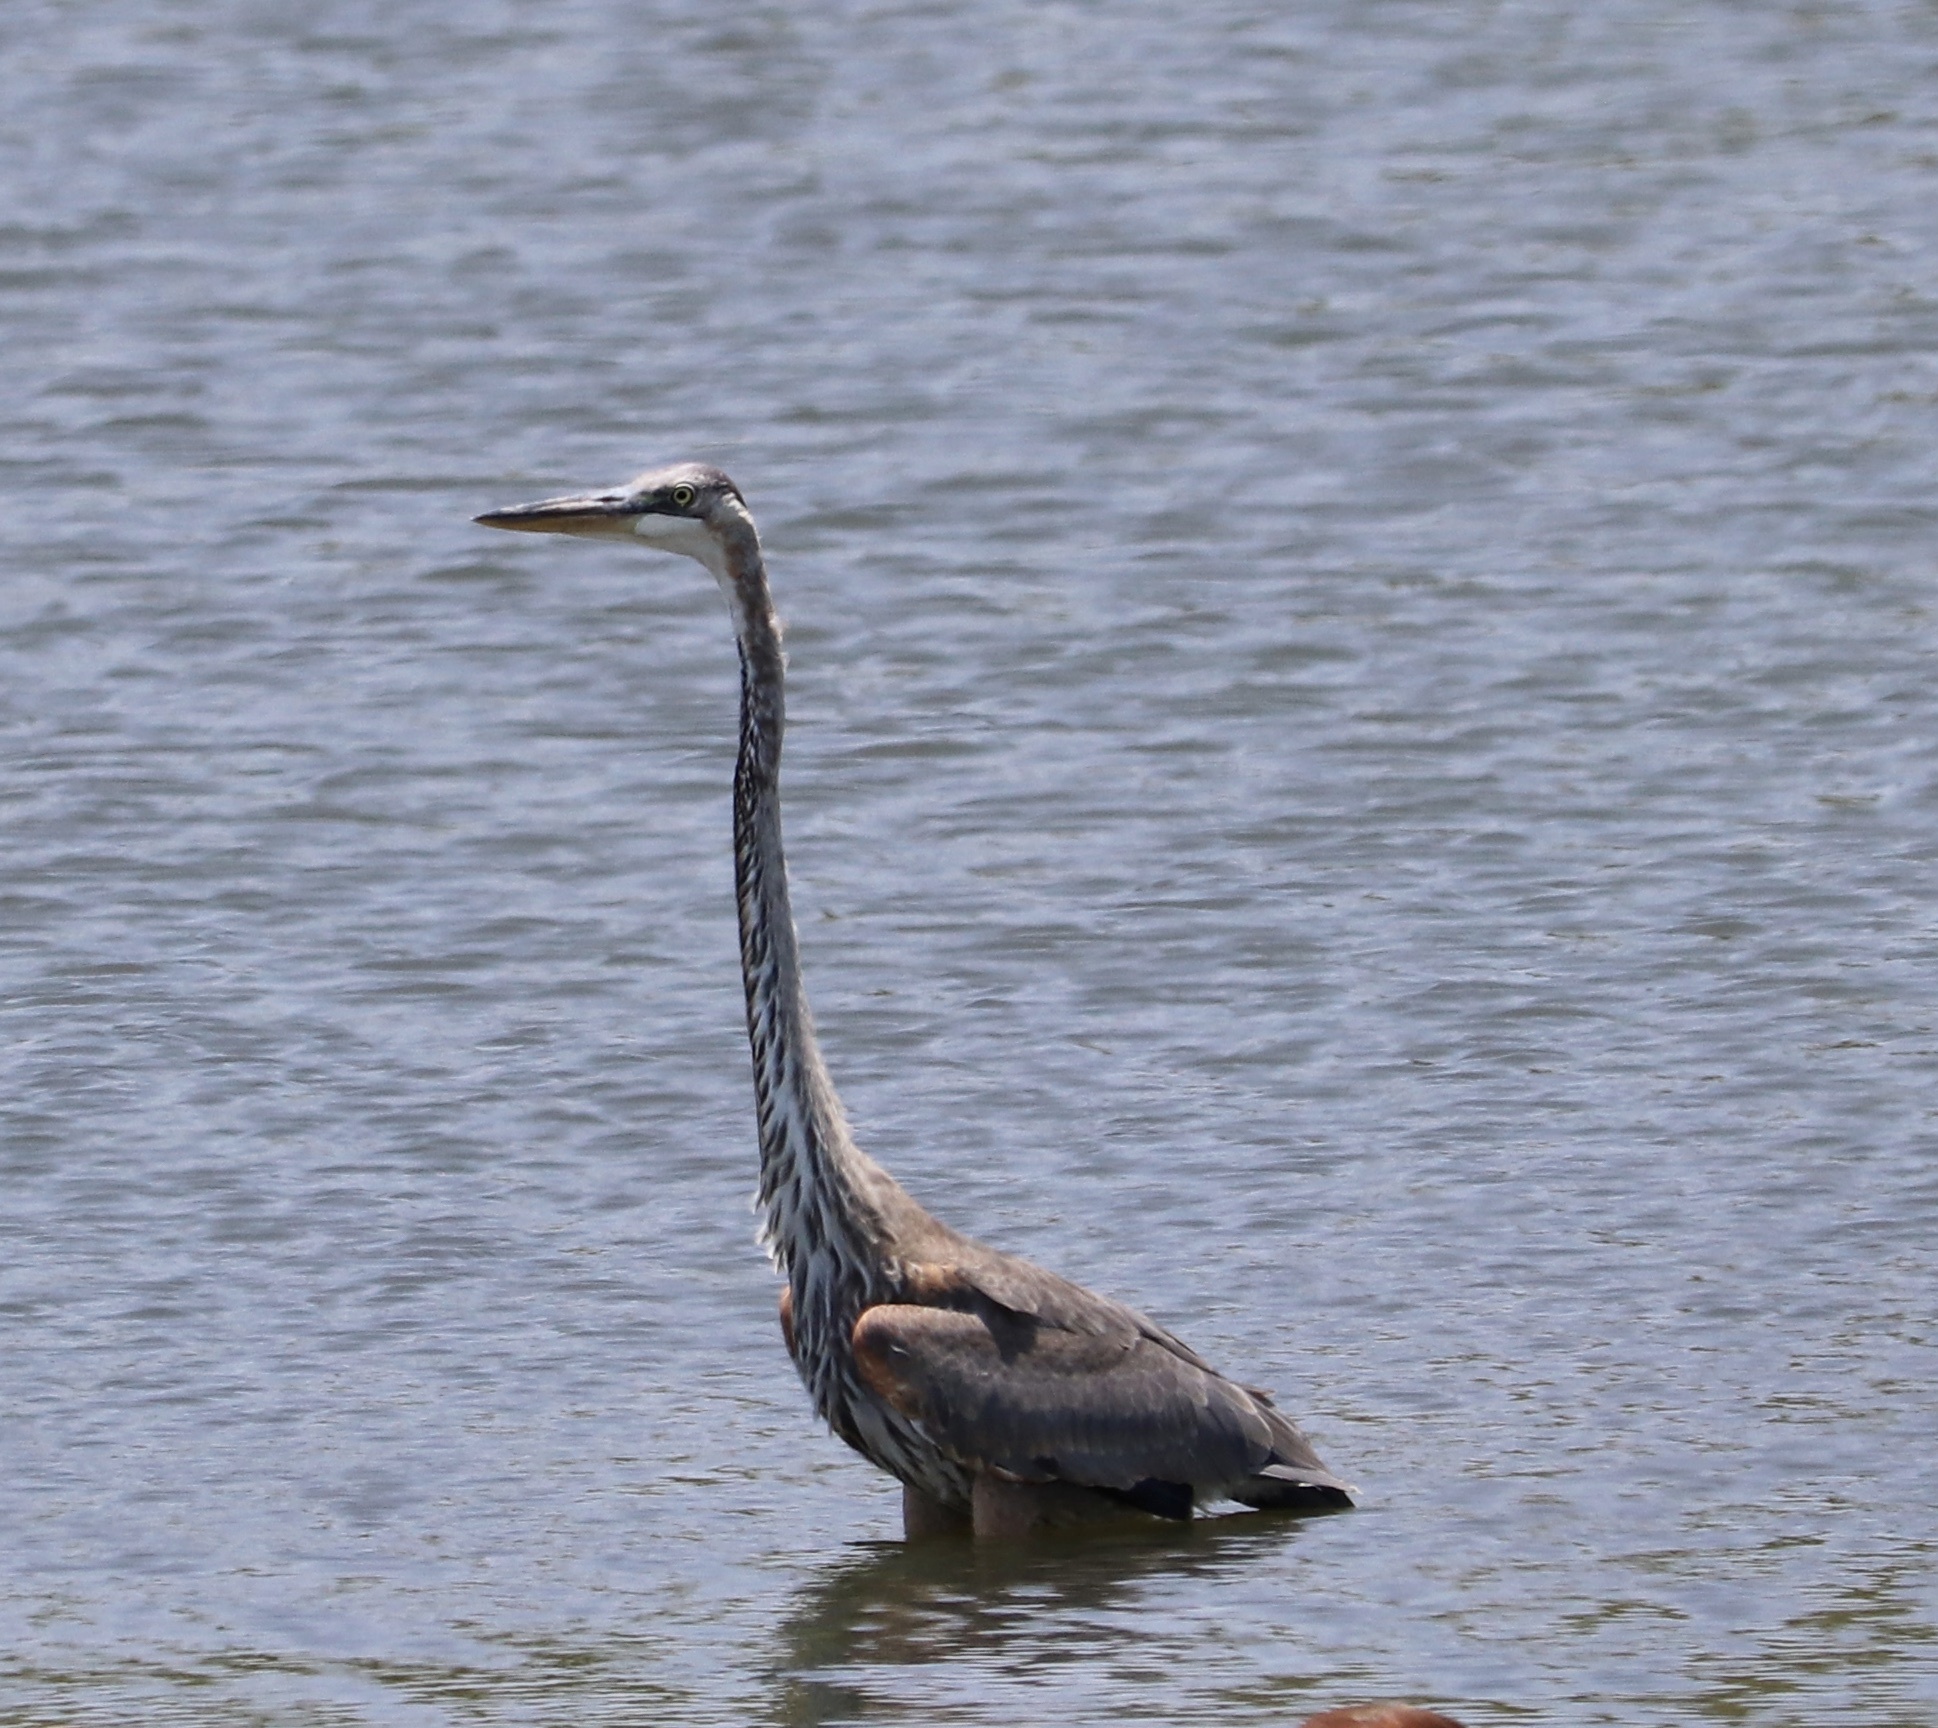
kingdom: Animalia
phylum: Chordata
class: Aves
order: Pelecaniformes
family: Ardeidae
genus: Ardea
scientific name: Ardea herodias
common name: Great blue heron
